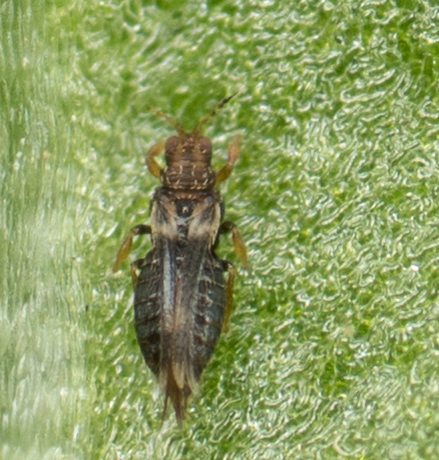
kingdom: Animalia
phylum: Arthropoda
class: Insecta
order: Thysanoptera
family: Thripidae
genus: Hercinothrips
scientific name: Hercinothrips femoralis
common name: Banded greenhouse thrips
